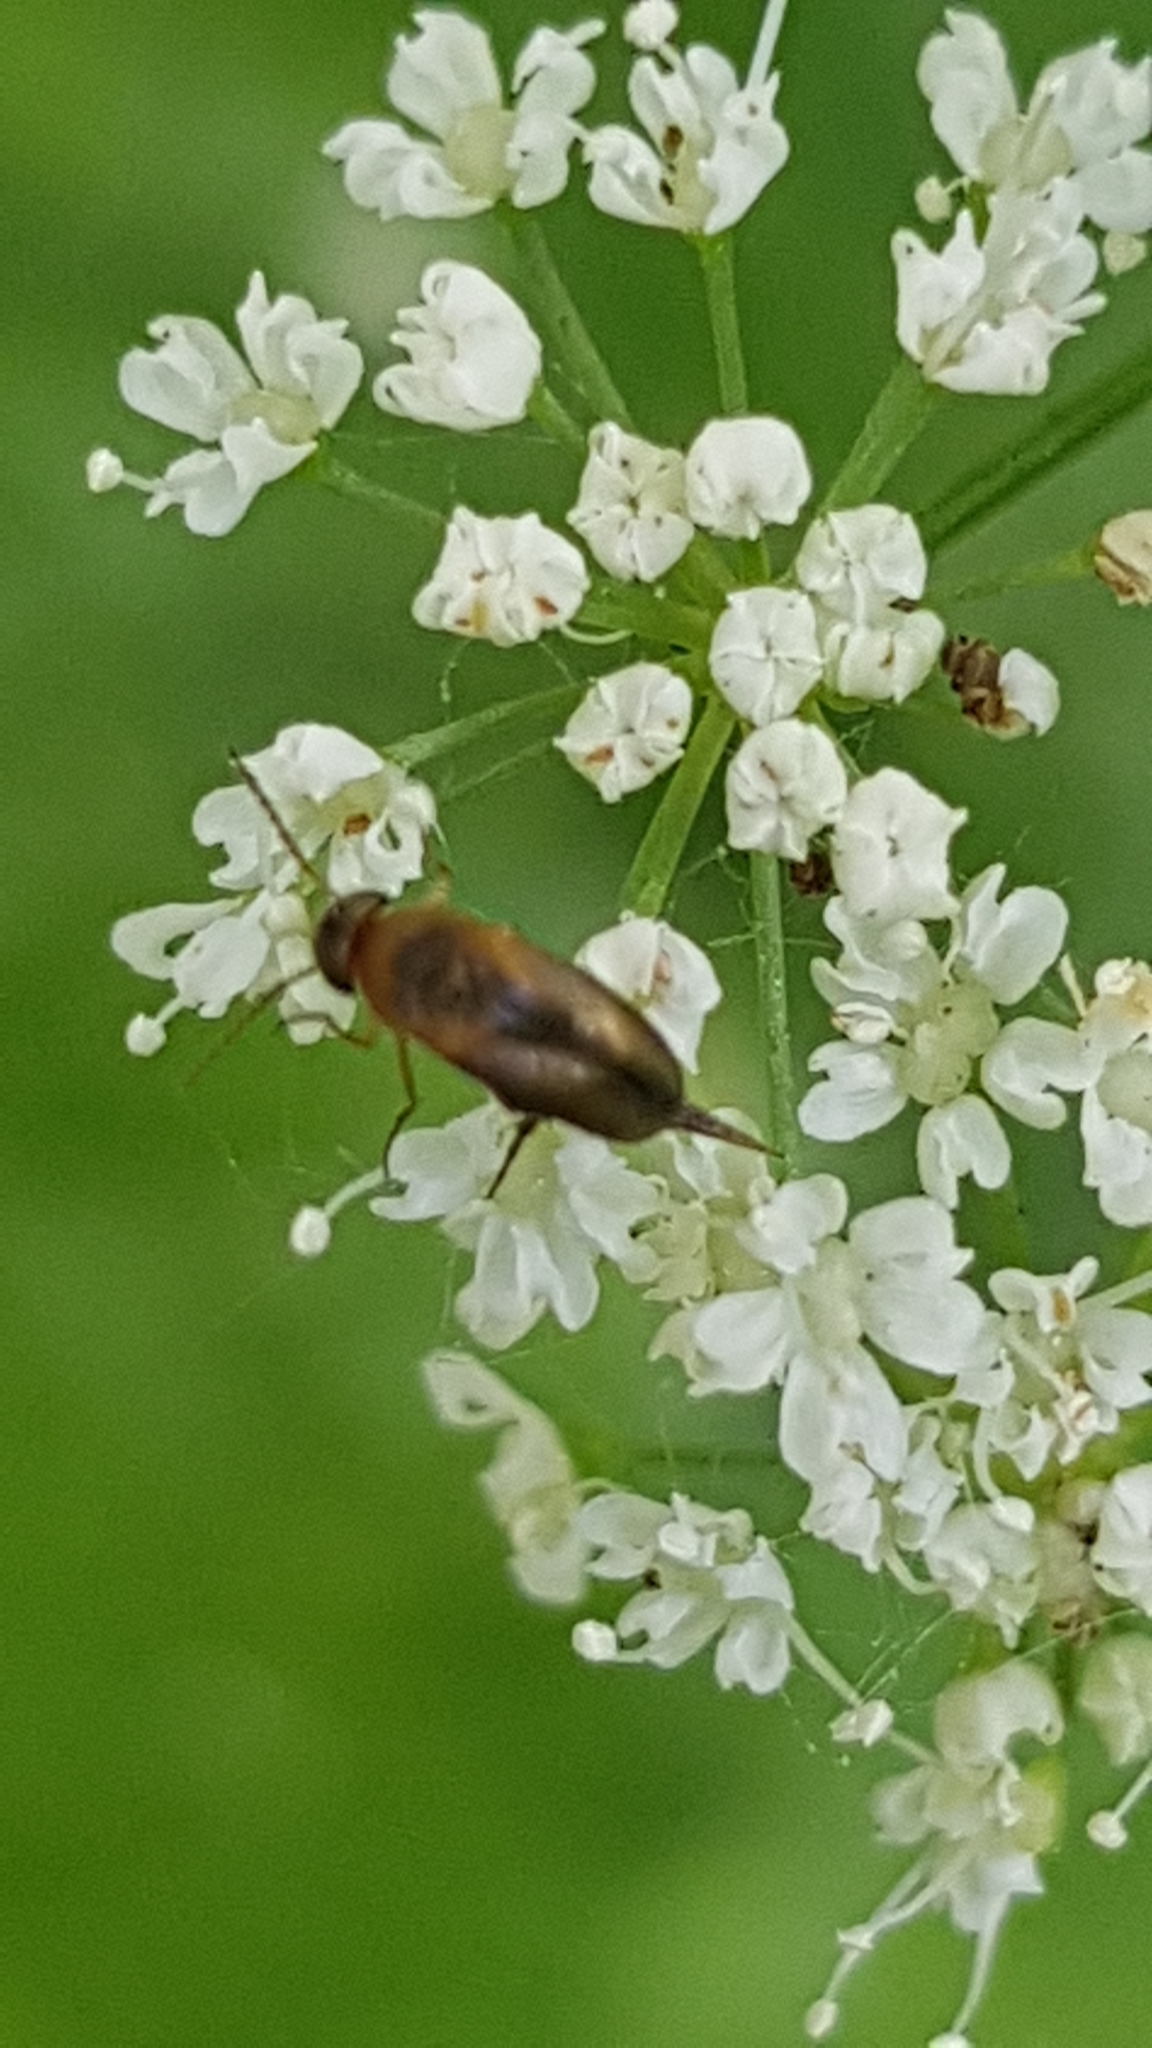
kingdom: Animalia
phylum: Arthropoda
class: Insecta
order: Coleoptera
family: Mordellidae
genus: Mordellistena
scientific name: Mordellistena variegata
